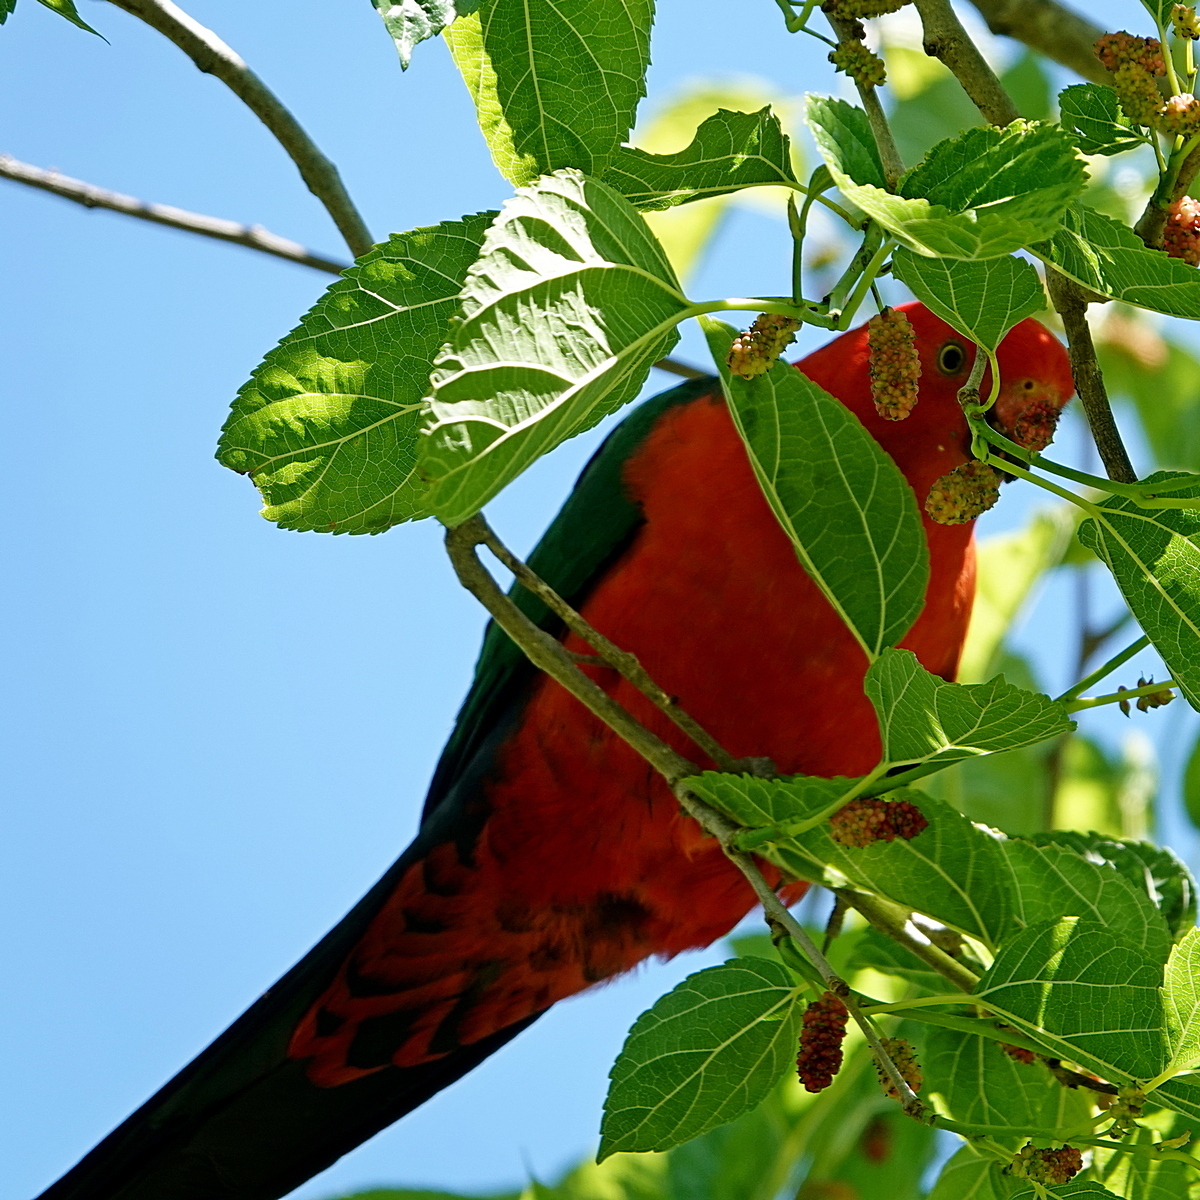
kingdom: Animalia
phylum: Chordata
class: Aves
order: Psittaciformes
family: Psittacidae
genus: Alisterus
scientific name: Alisterus scapularis
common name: Australian king parrot
